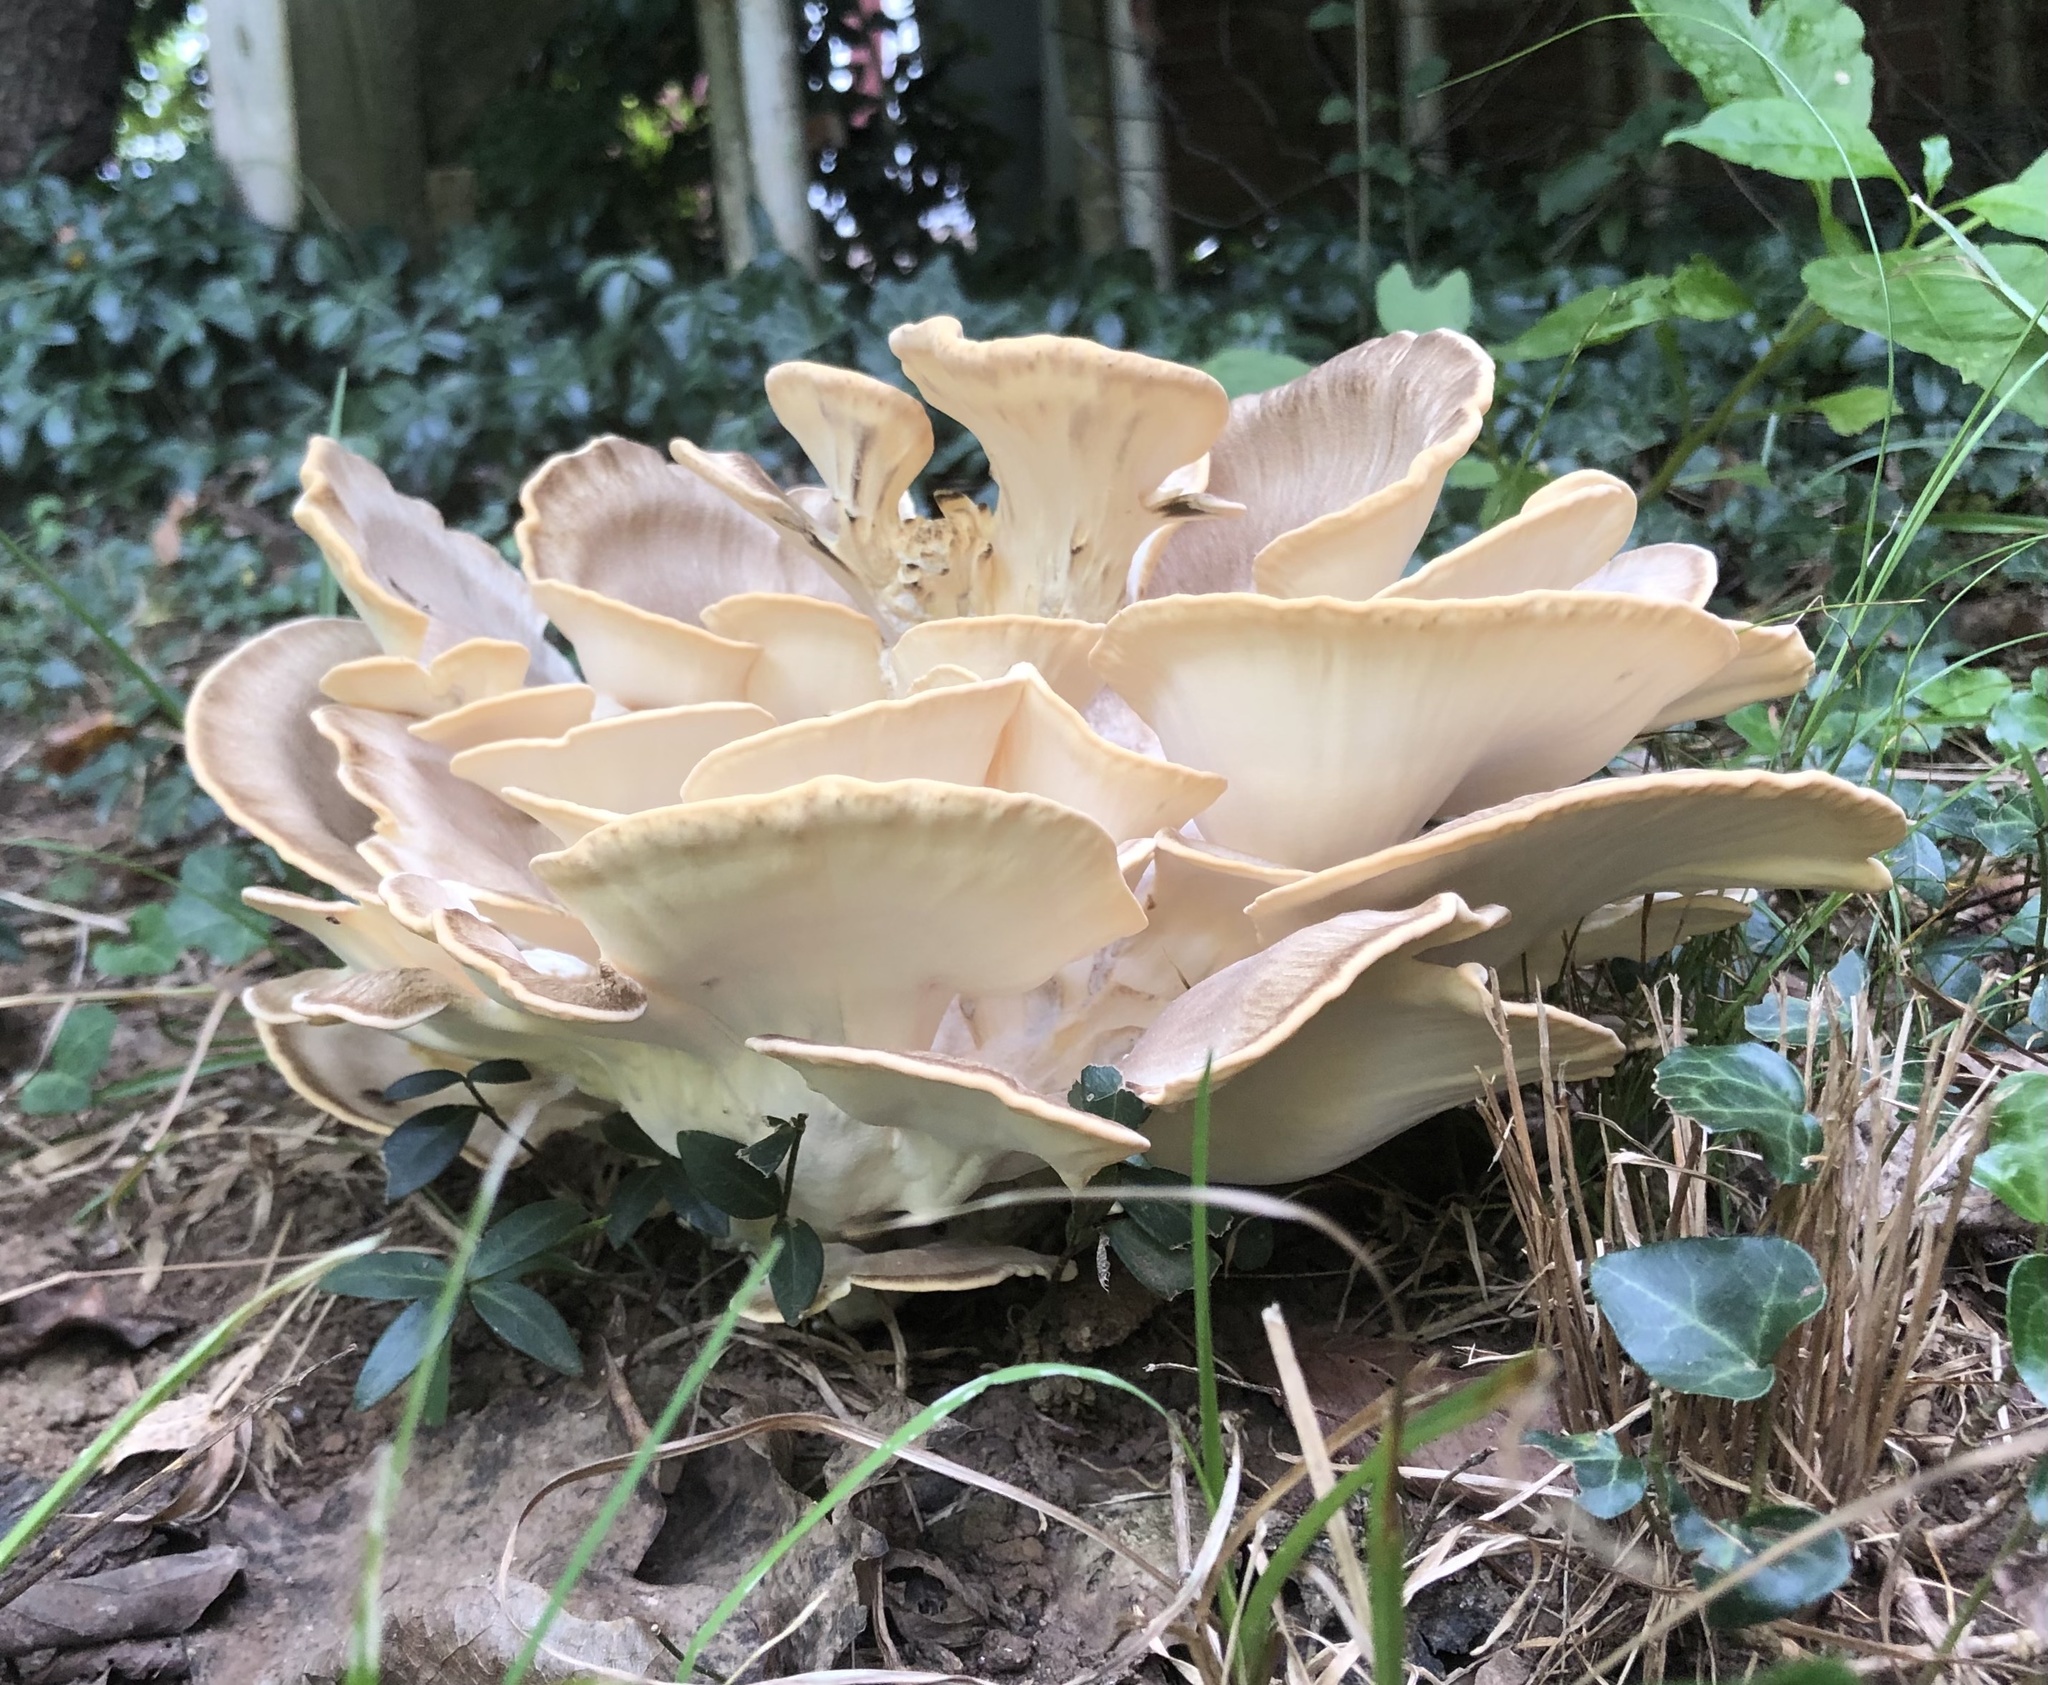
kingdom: Fungi
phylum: Basidiomycota
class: Agaricomycetes
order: Polyporales
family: Meripilaceae
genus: Meripilus
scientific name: Meripilus sumstinei
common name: Black-staining polypore
